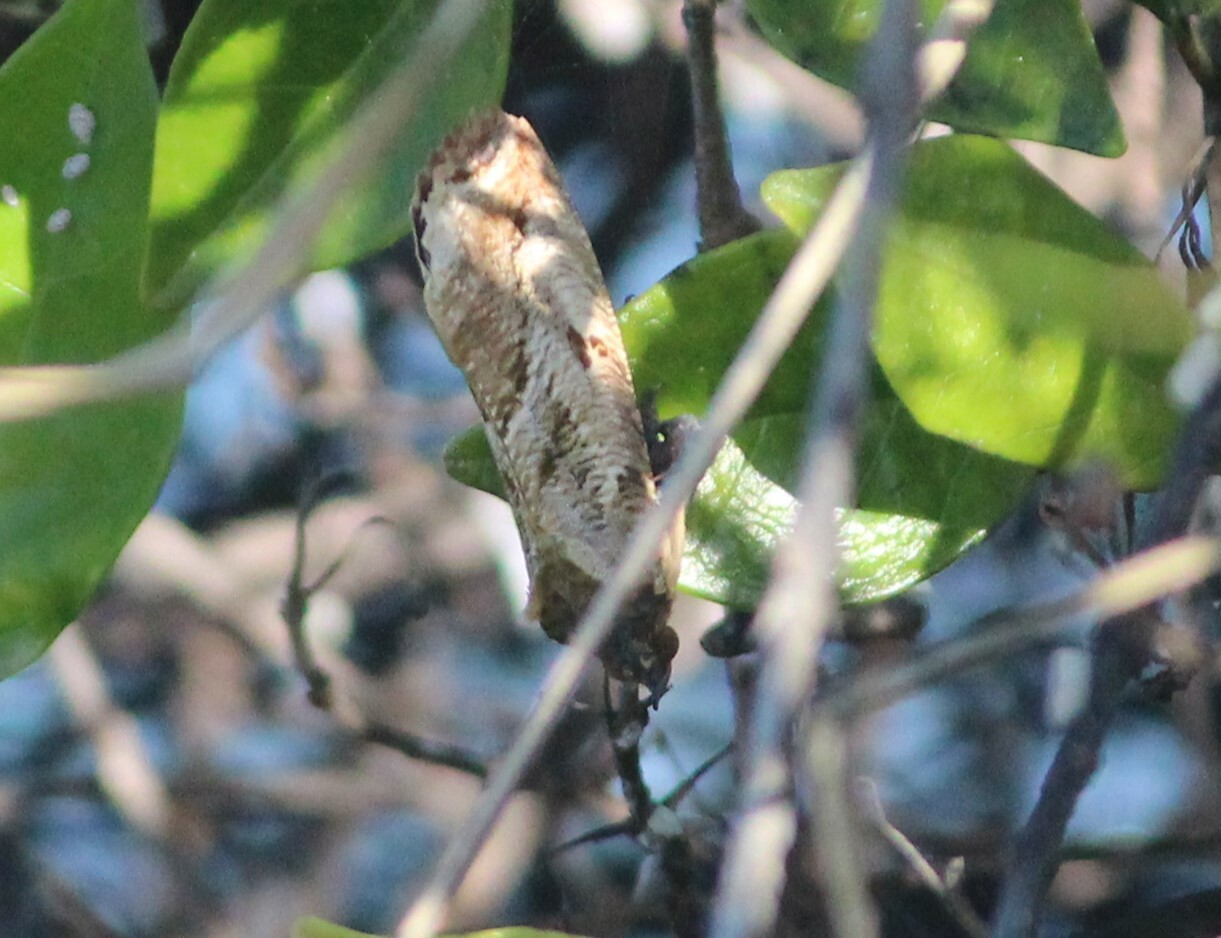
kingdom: Animalia
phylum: Arthropoda
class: Insecta
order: Lepidoptera
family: Erebidae
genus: Eudocima
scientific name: Eudocima materna
